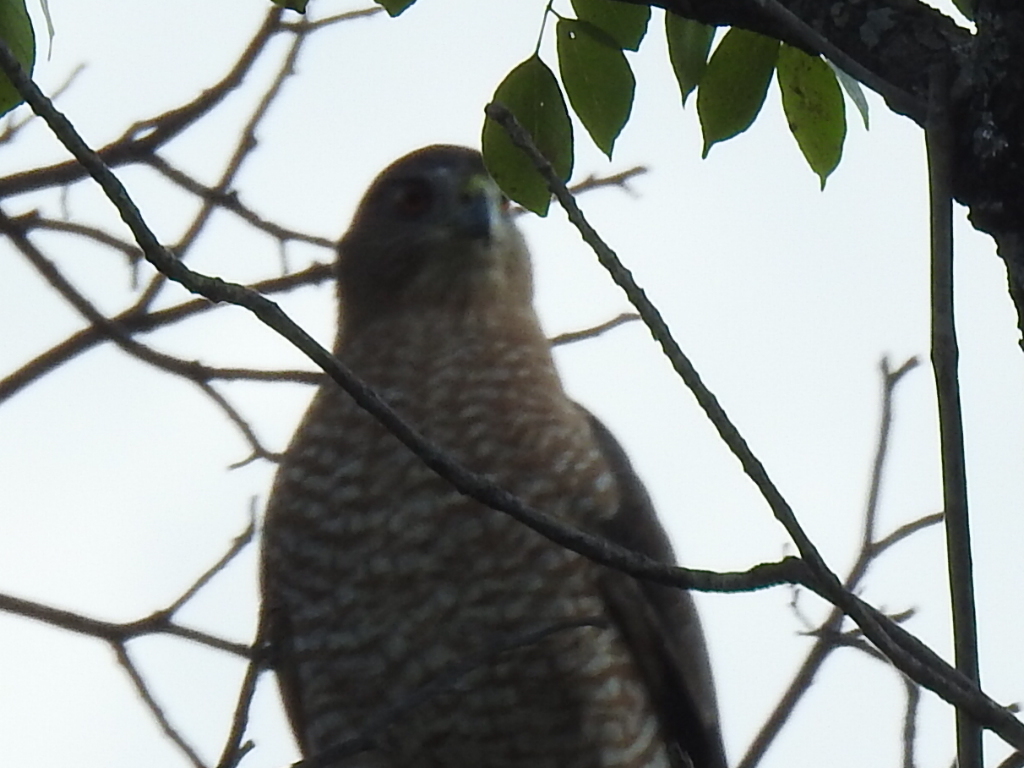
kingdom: Animalia
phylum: Chordata
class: Aves
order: Accipitriformes
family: Accipitridae
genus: Accipiter
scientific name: Accipiter cooperii
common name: Cooper's hawk
